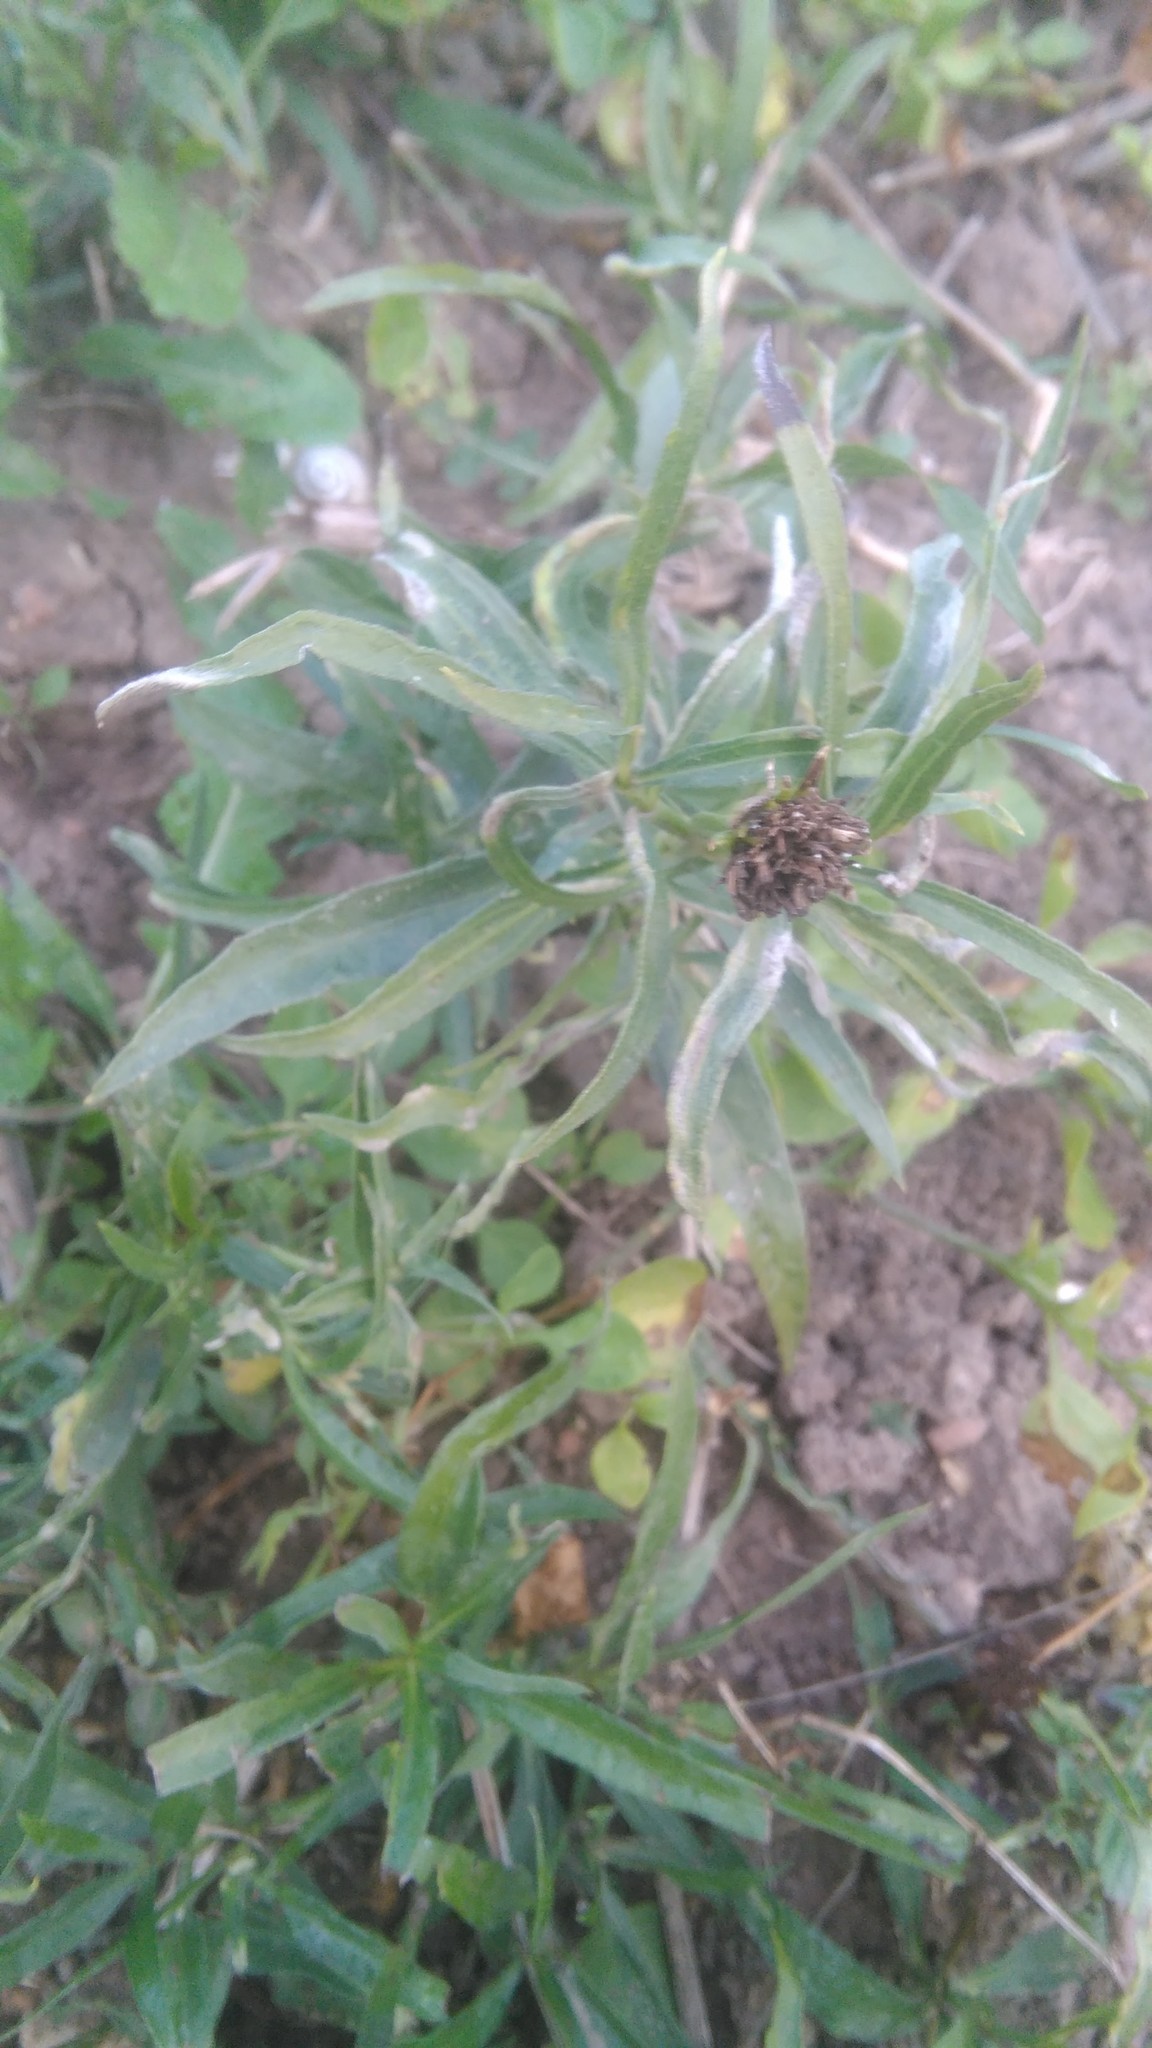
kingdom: Plantae
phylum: Tracheophyta
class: Magnoliopsida
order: Asterales
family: Asteraceae
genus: Pascalia
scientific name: Pascalia glauca
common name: Beach creeping oxeye
